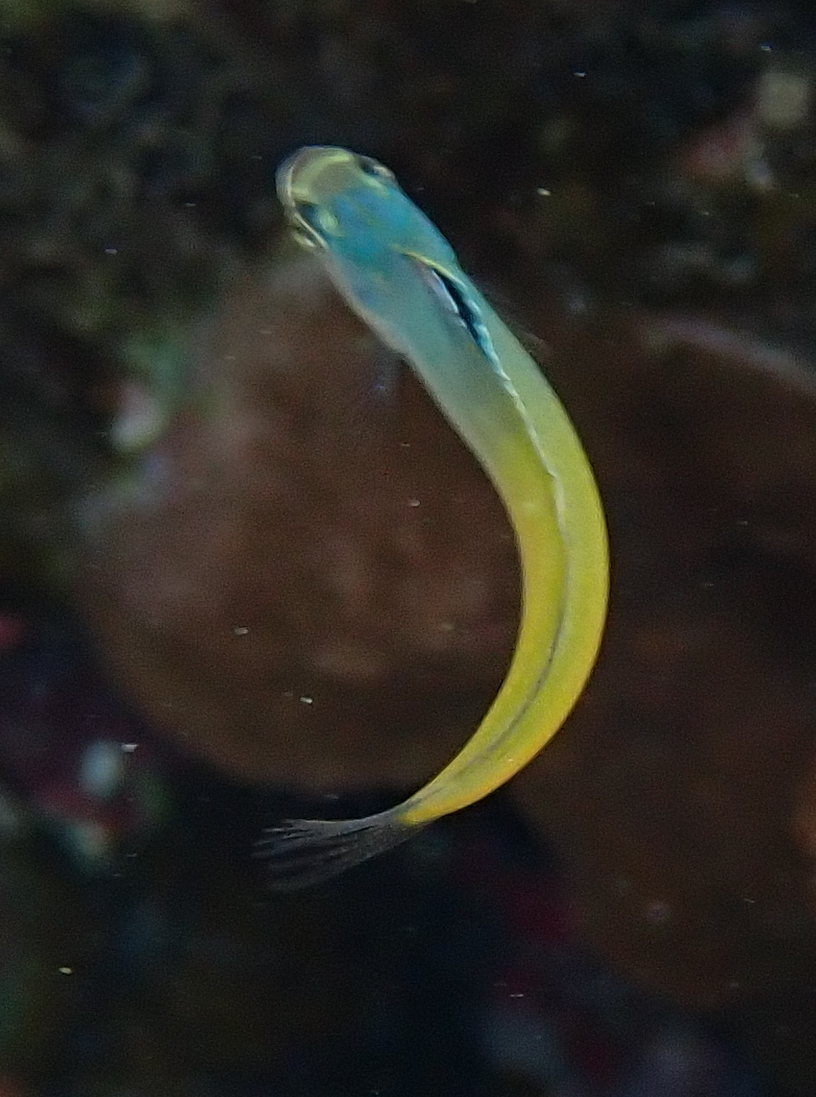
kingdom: Animalia
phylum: Chordata
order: Perciformes
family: Blenniidae
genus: Plagiotremus
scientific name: Plagiotremus townsendi
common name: Townsend's fangblenny
